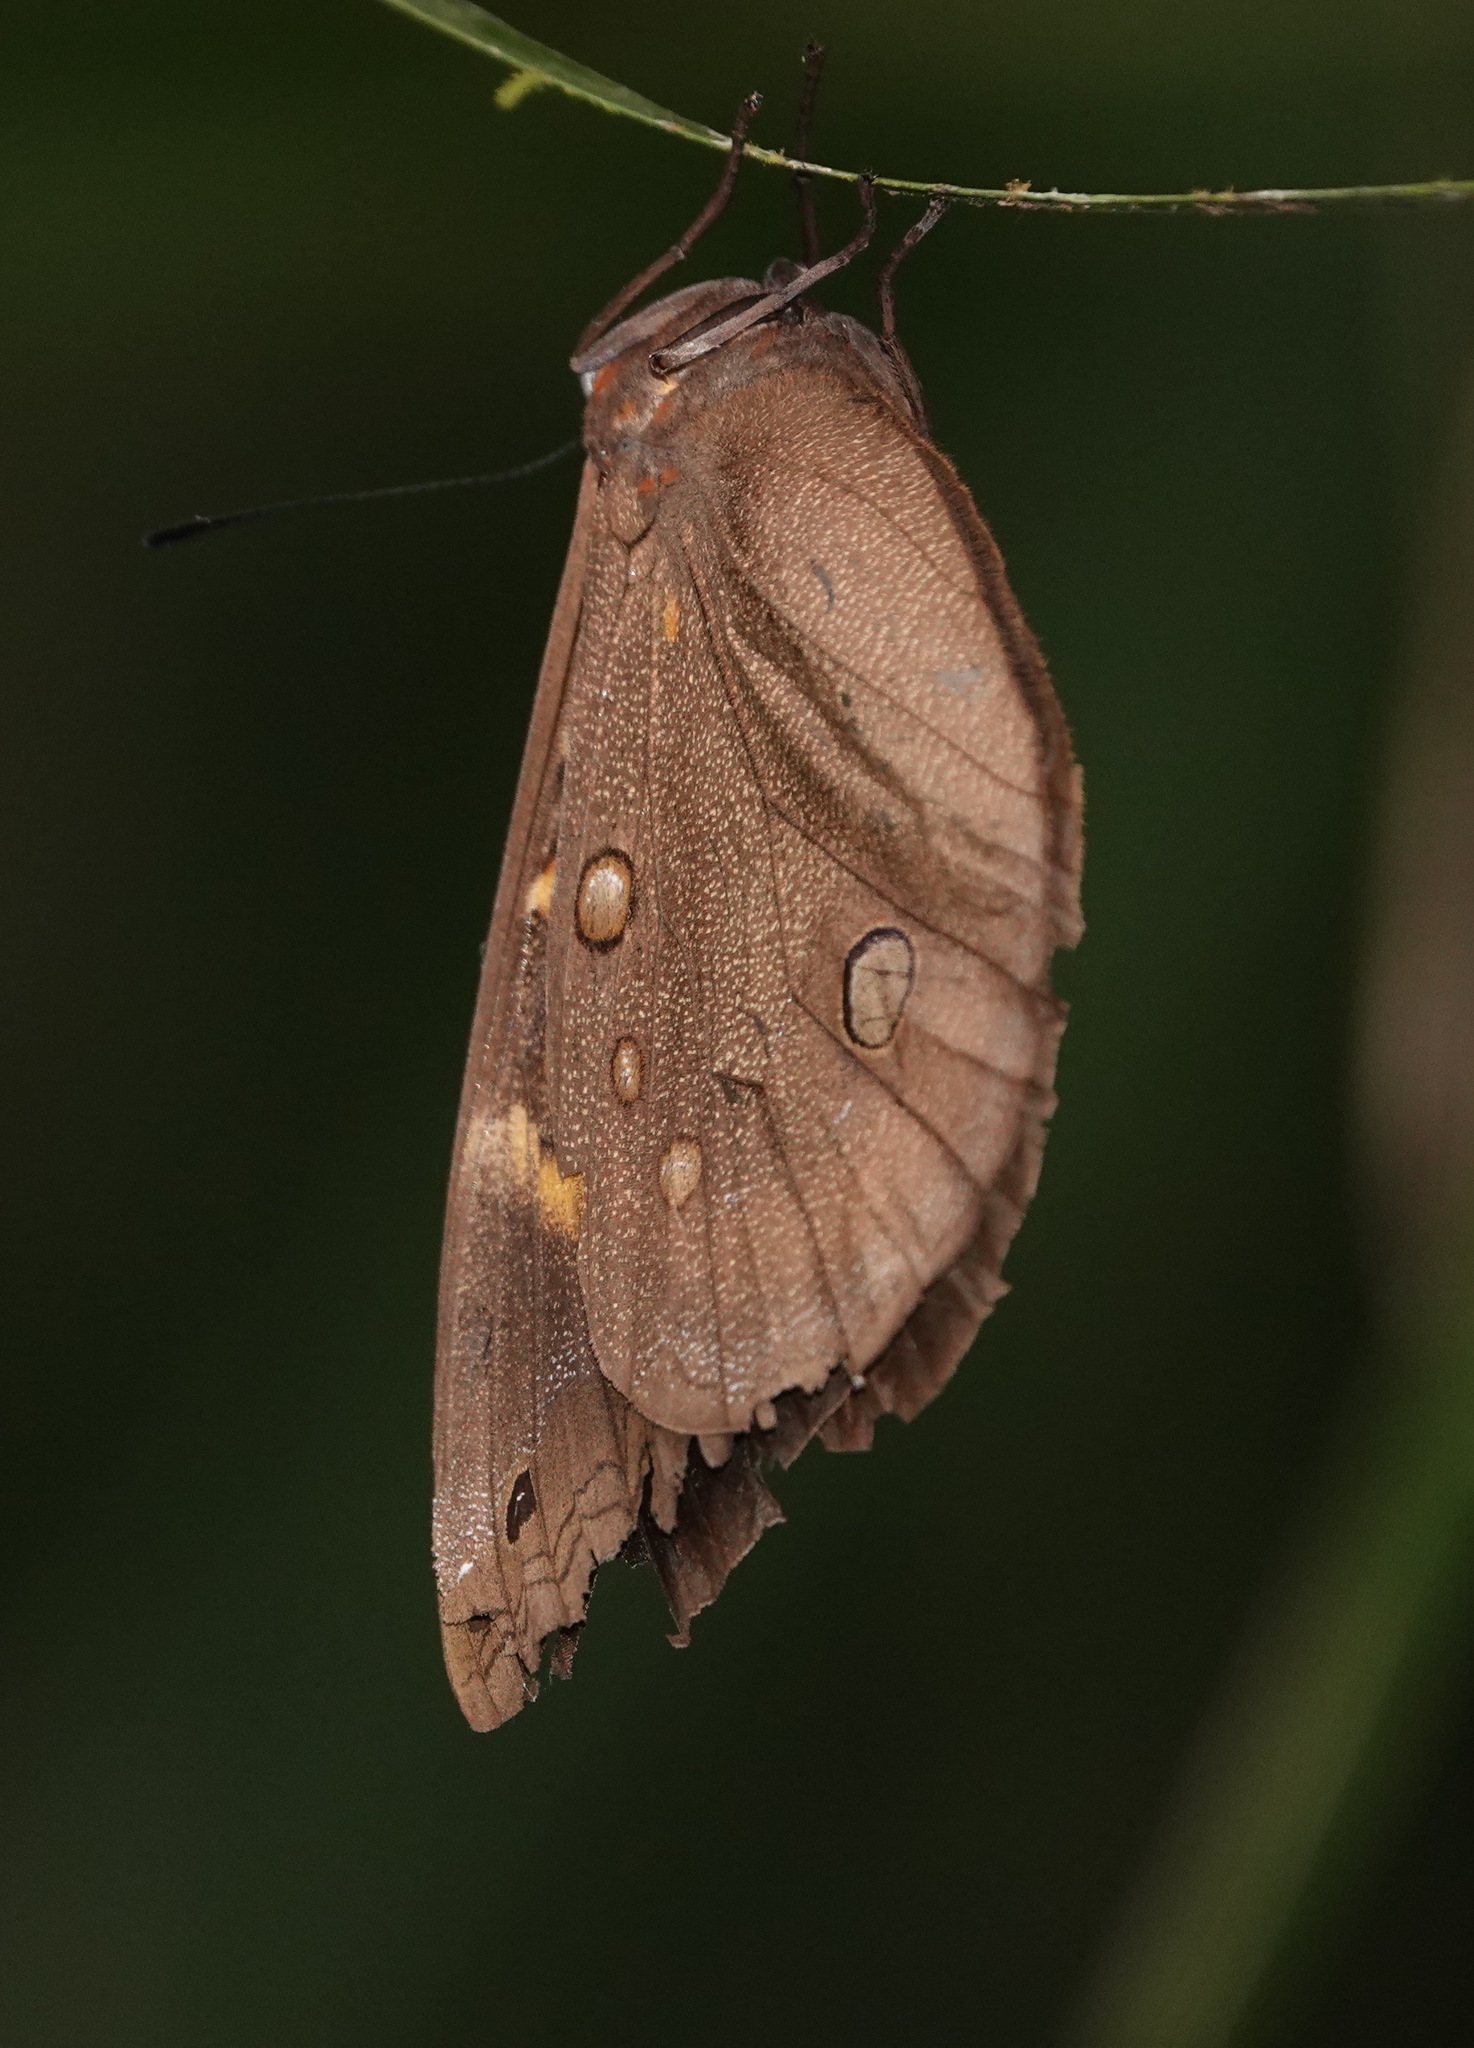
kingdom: Animalia
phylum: Arthropoda
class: Insecta
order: Lepidoptera
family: Nymphalidae
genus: Brassolis
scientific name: Brassolis sophorae
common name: Coconut caterpillar
